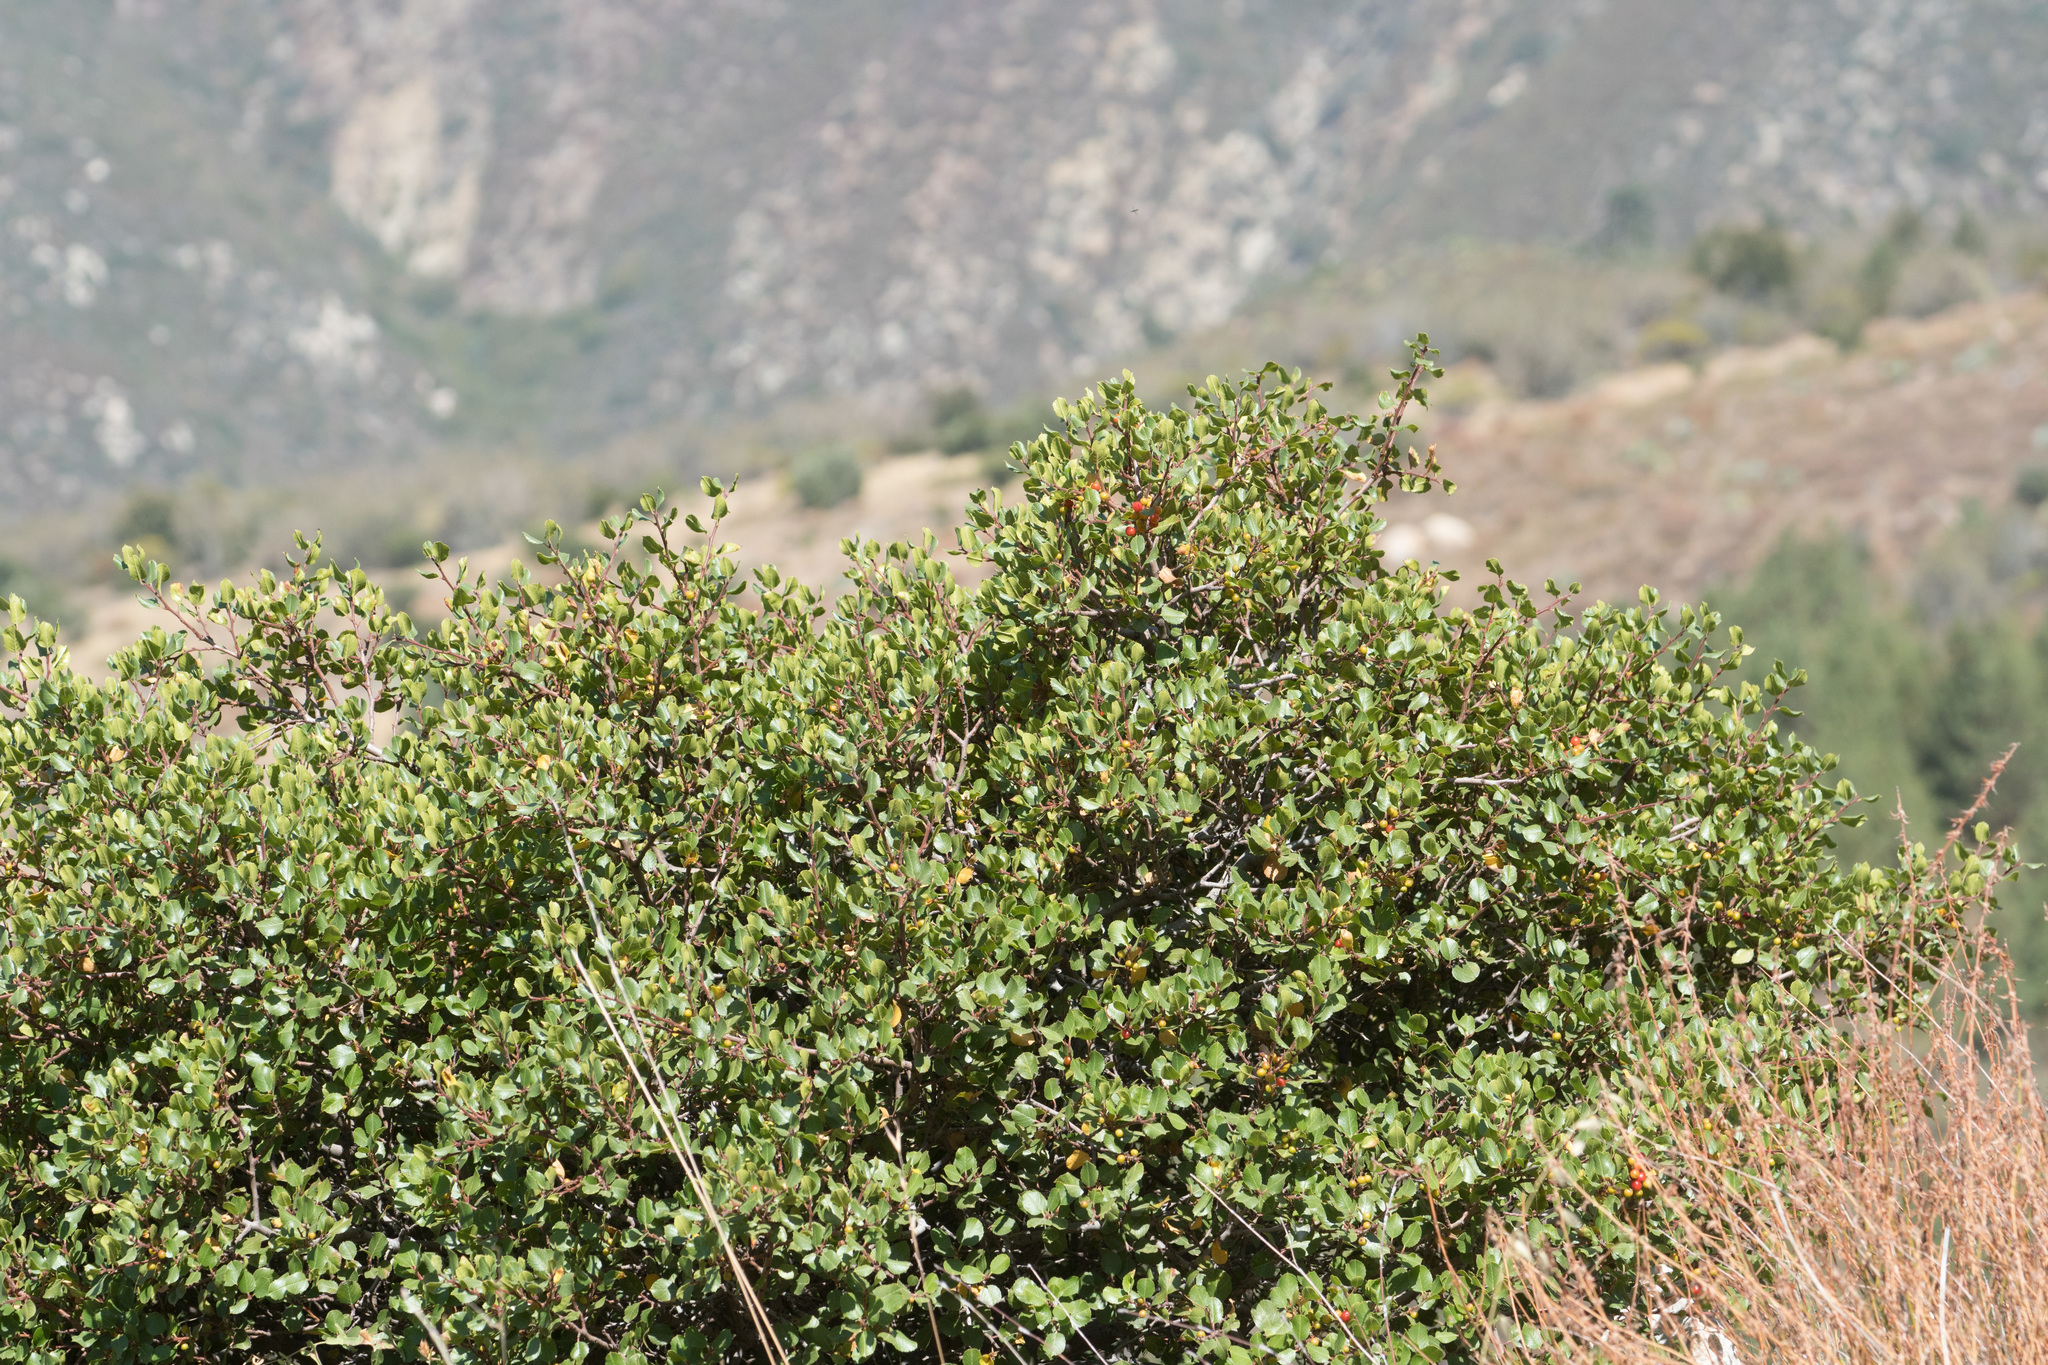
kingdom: Plantae
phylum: Tracheophyta
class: Magnoliopsida
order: Rosales
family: Rhamnaceae
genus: Endotropis
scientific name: Endotropis crocea
